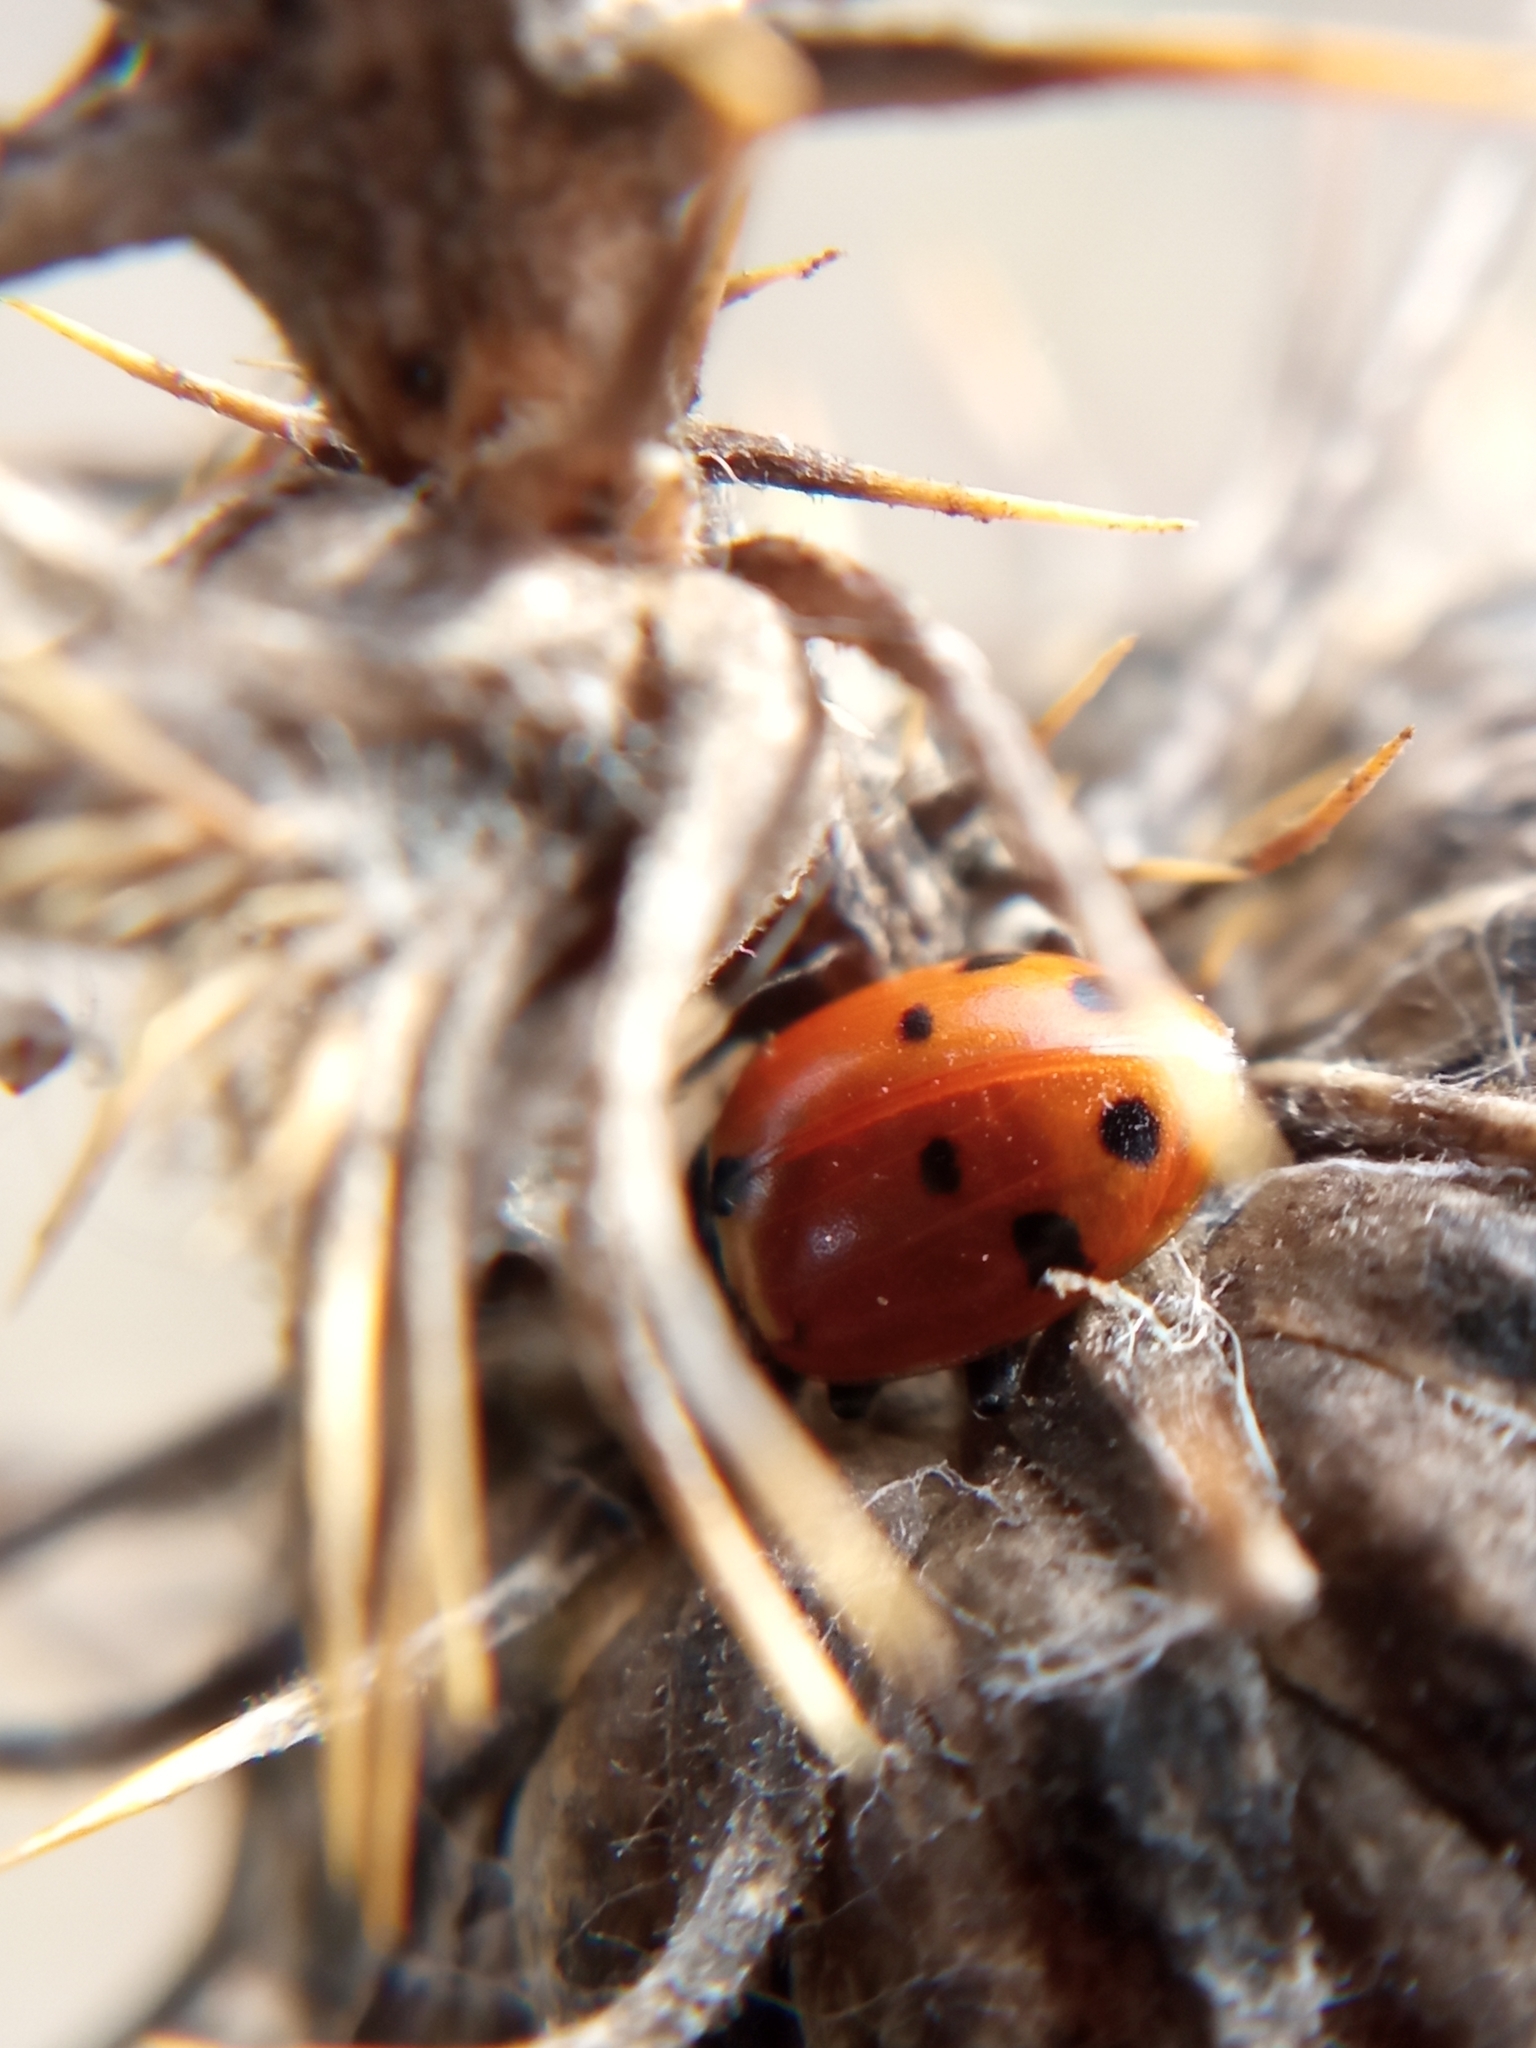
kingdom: Animalia
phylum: Arthropoda
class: Insecta
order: Coleoptera
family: Coccinellidae
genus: Hippodamia
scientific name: Hippodamia variegata
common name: Ladybird beetle
